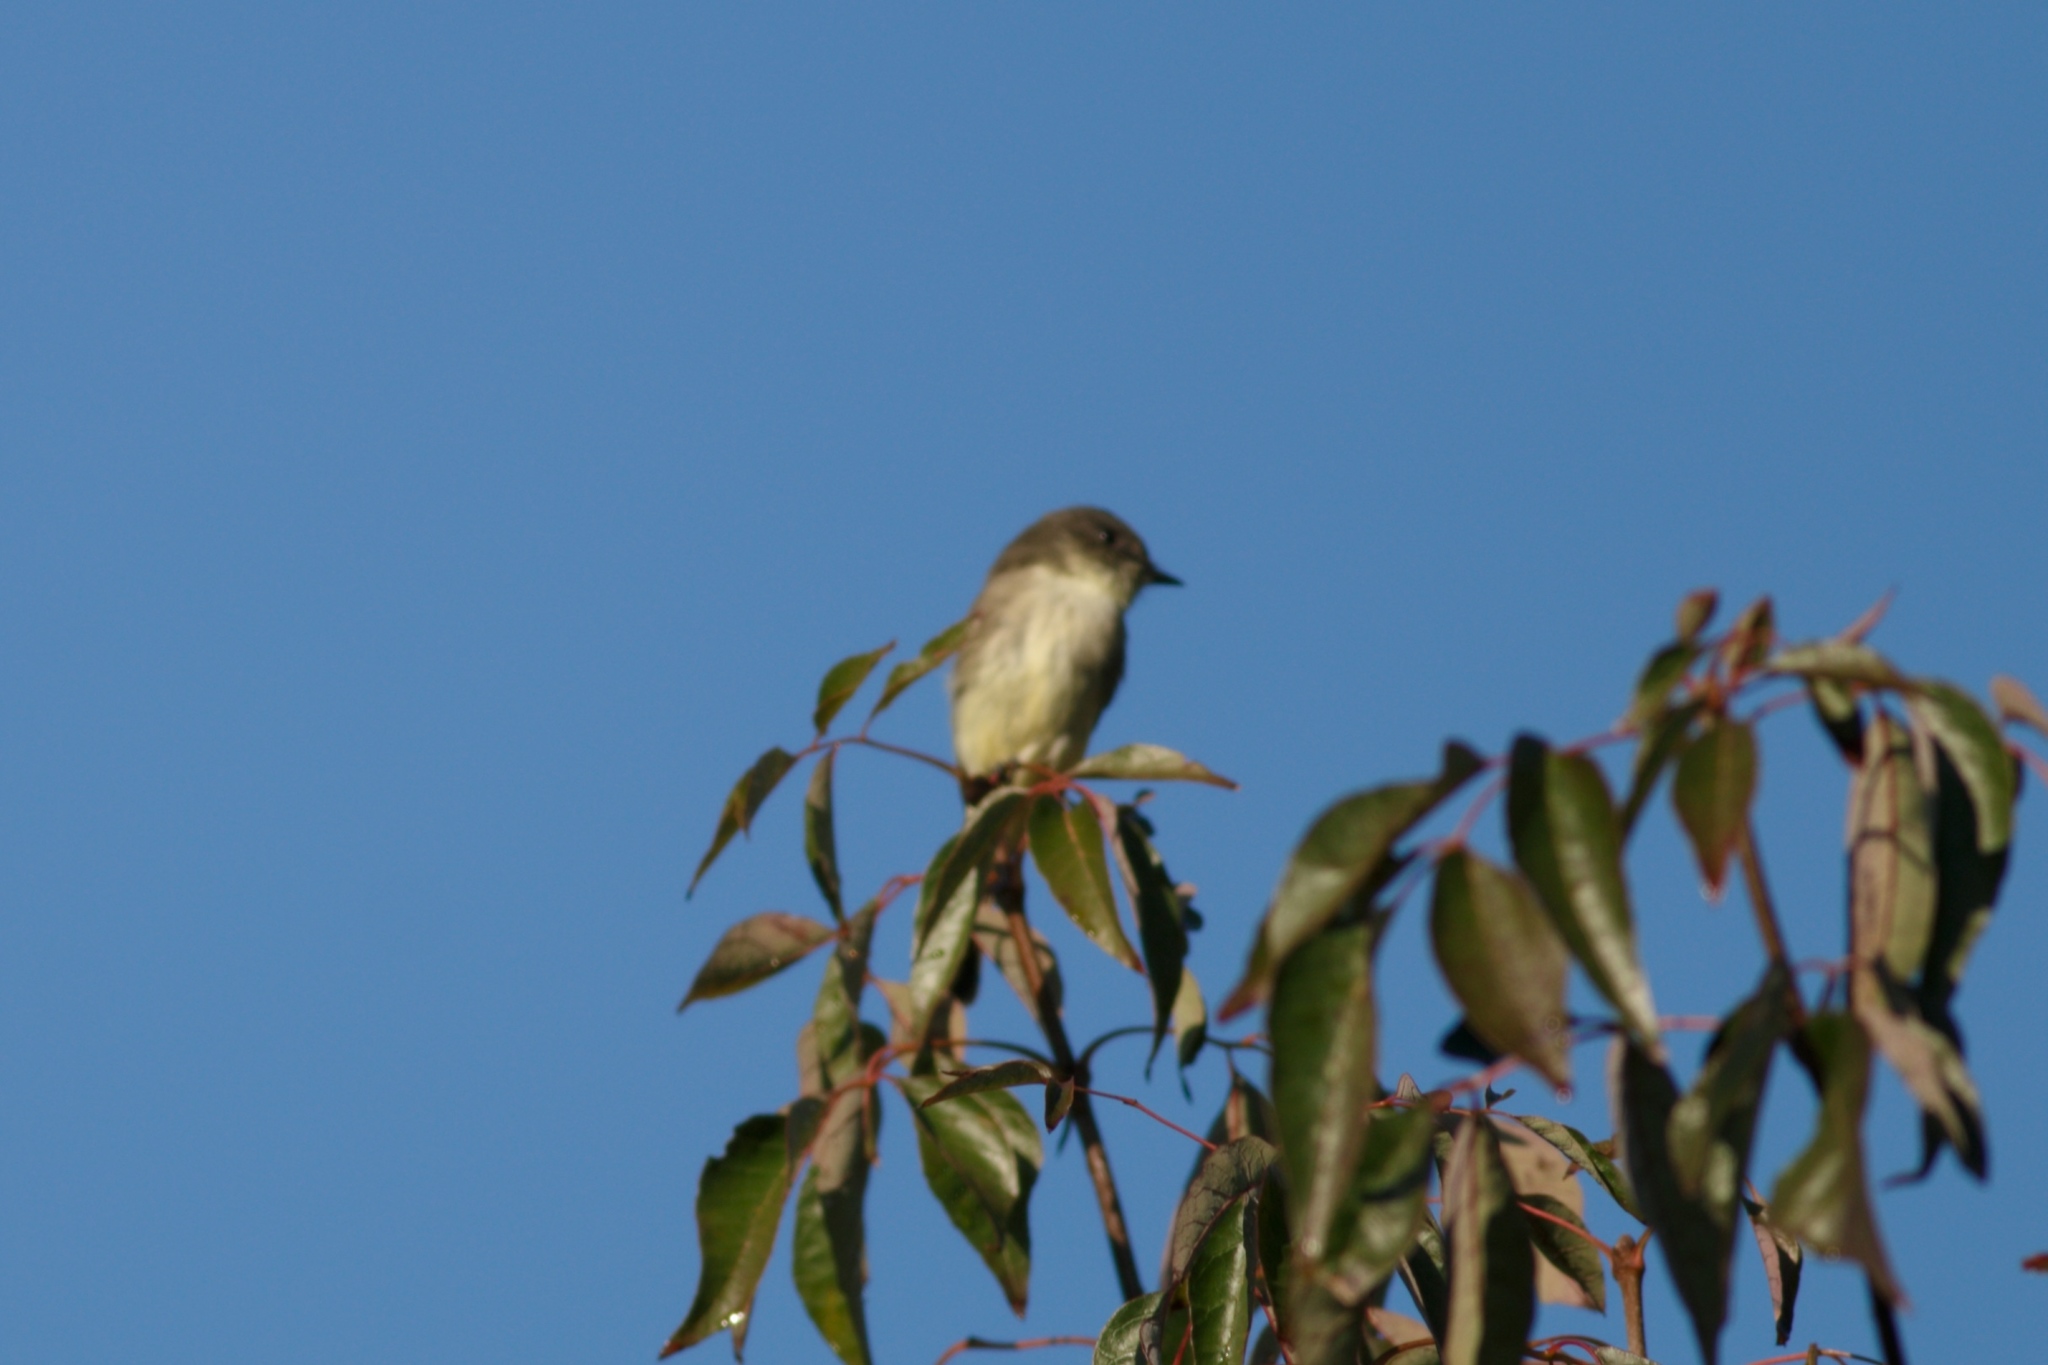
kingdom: Animalia
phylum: Chordata
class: Aves
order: Passeriformes
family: Tyrannidae
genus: Sayornis
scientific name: Sayornis phoebe
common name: Eastern phoebe
